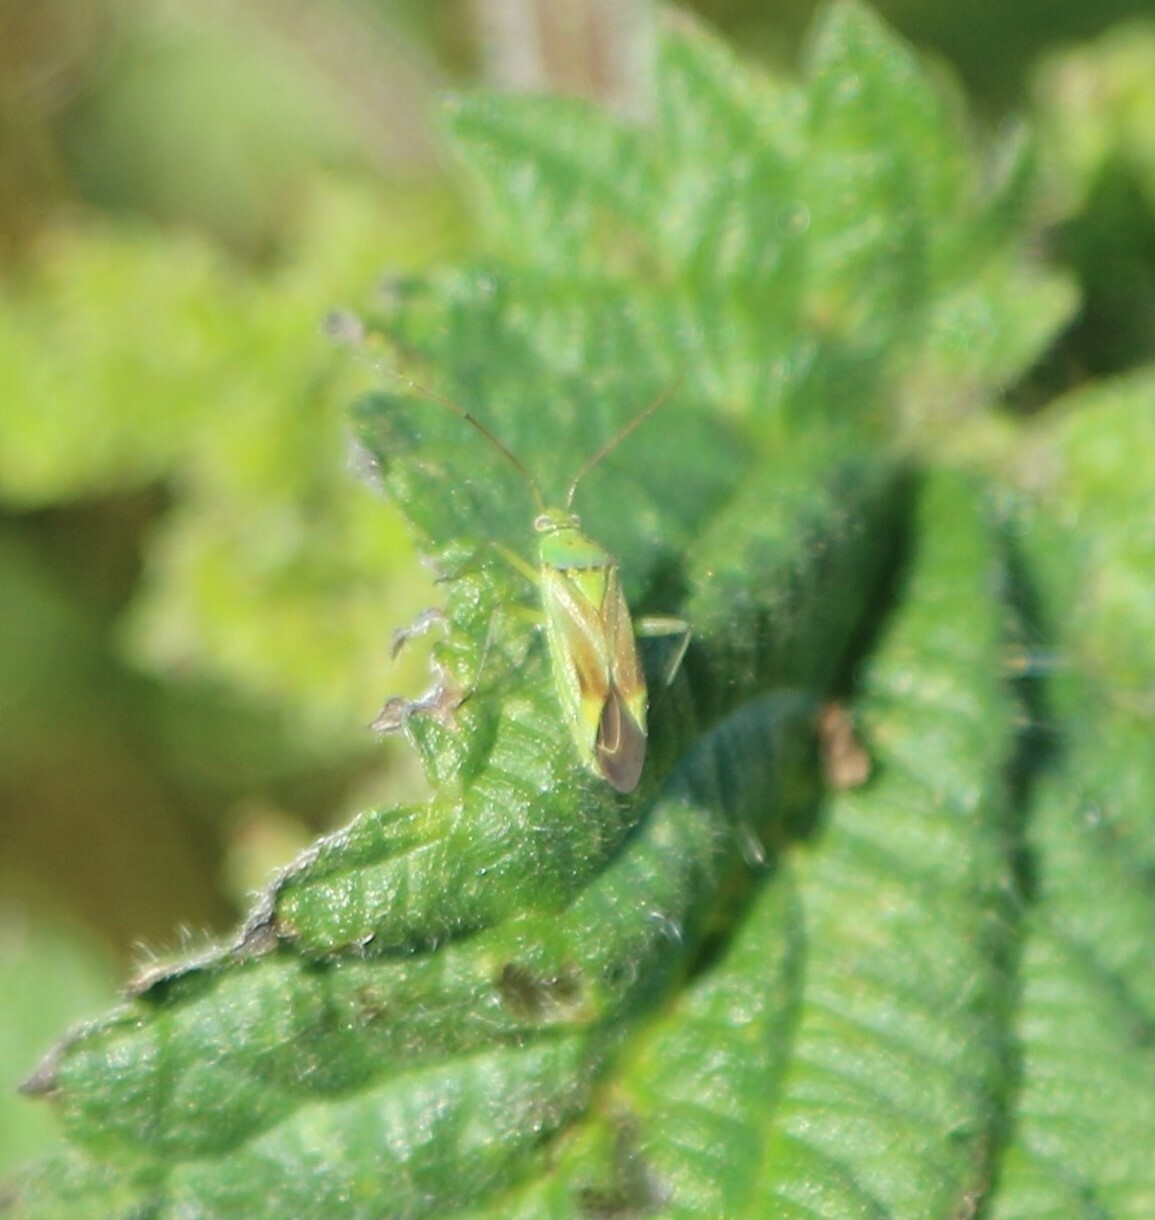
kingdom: Animalia
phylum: Arthropoda
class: Insecta
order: Hemiptera
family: Miridae
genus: Closterotomus
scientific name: Closterotomus norvegicus
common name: Plant bug
